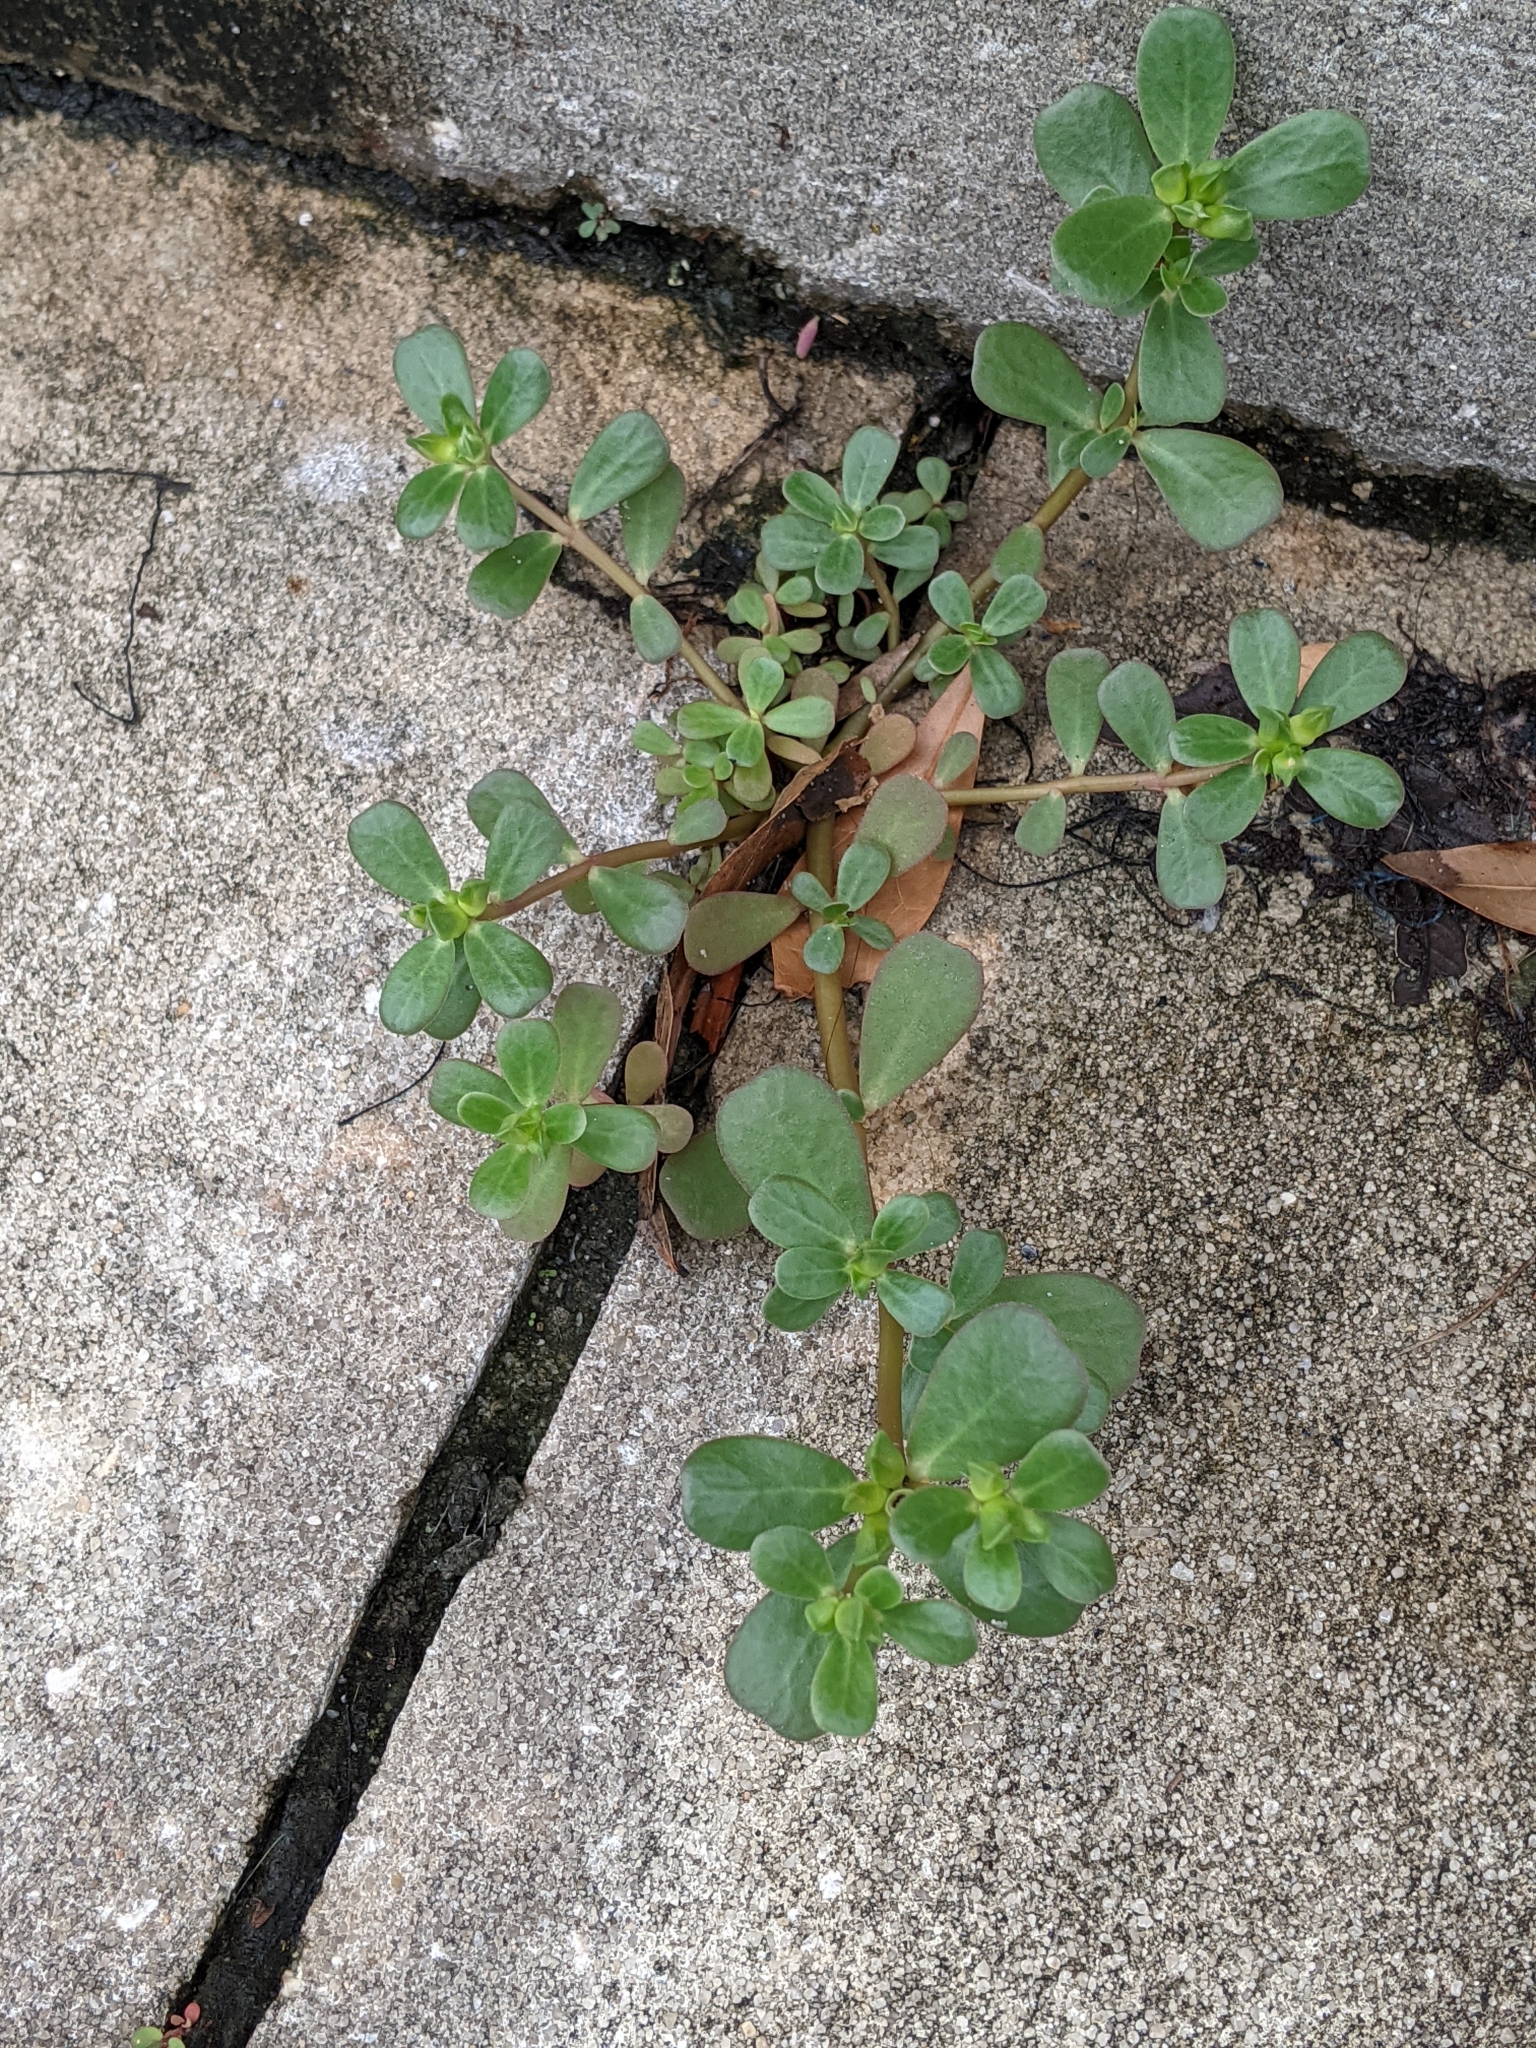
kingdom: Plantae
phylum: Tracheophyta
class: Magnoliopsida
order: Caryophyllales
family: Portulacaceae
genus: Portulaca
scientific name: Portulaca oleracea
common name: Common purslane
